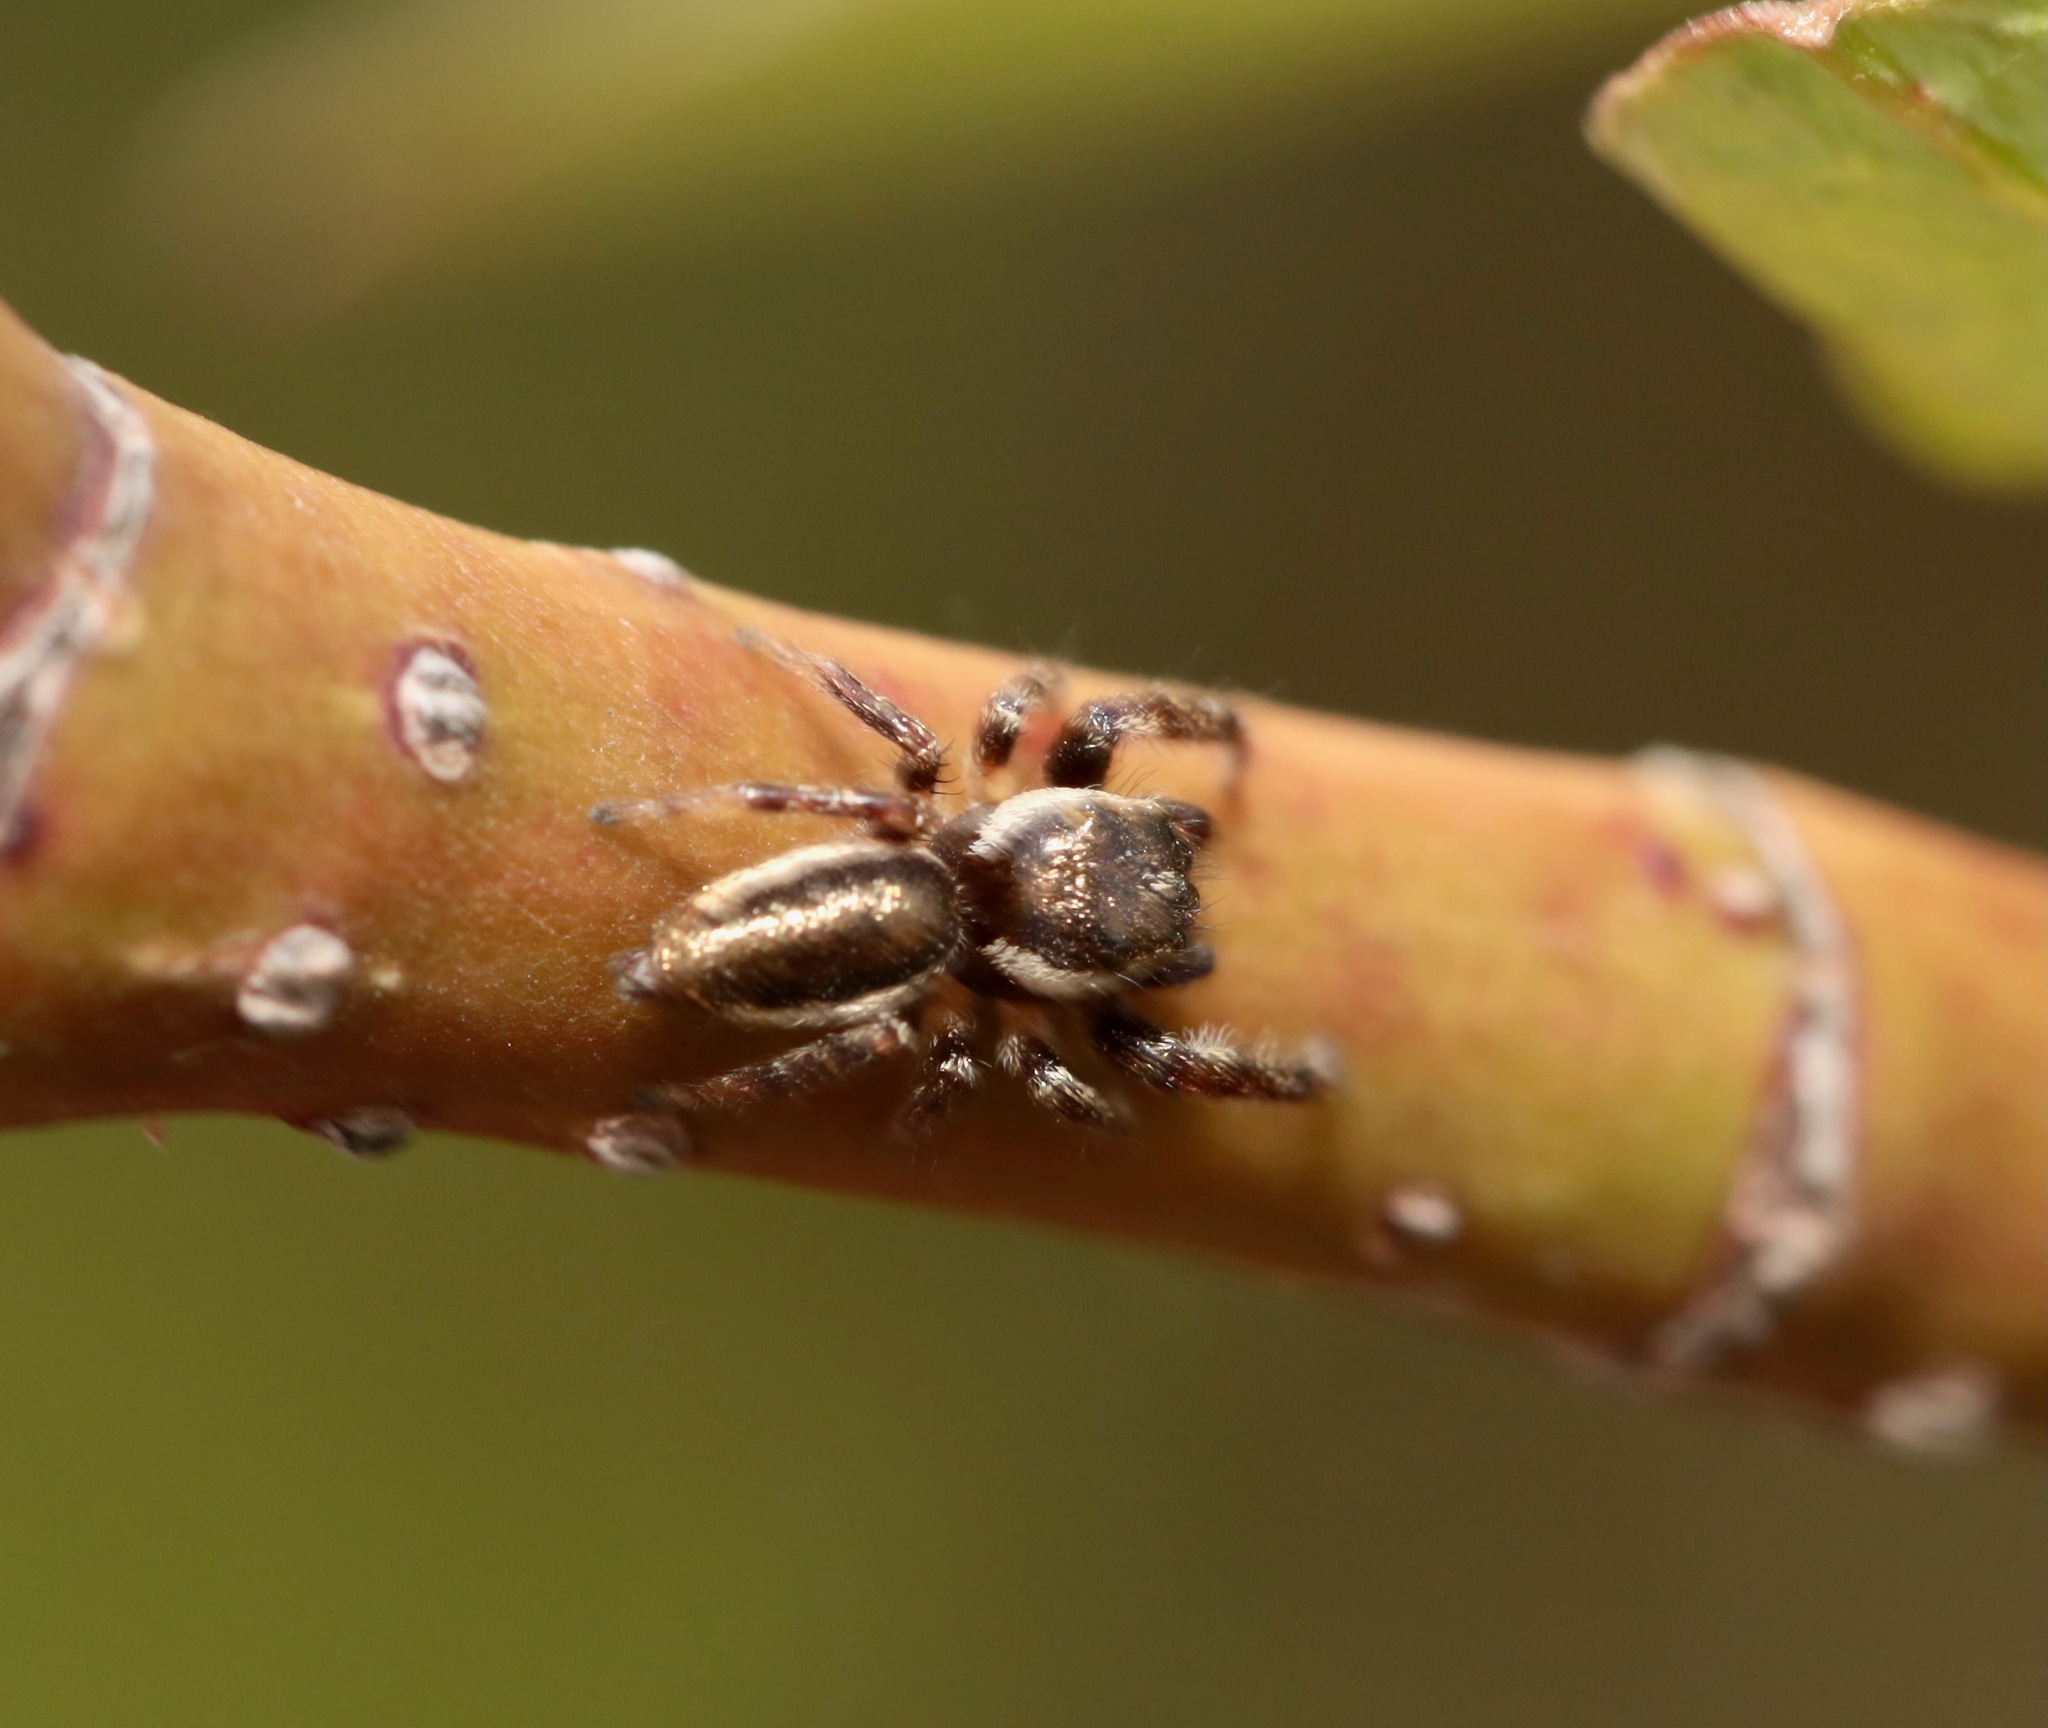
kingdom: Animalia
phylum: Arthropoda
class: Arachnida
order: Araneae
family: Salticidae
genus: Eris
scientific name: Eris militaris
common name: Bronze jumper
